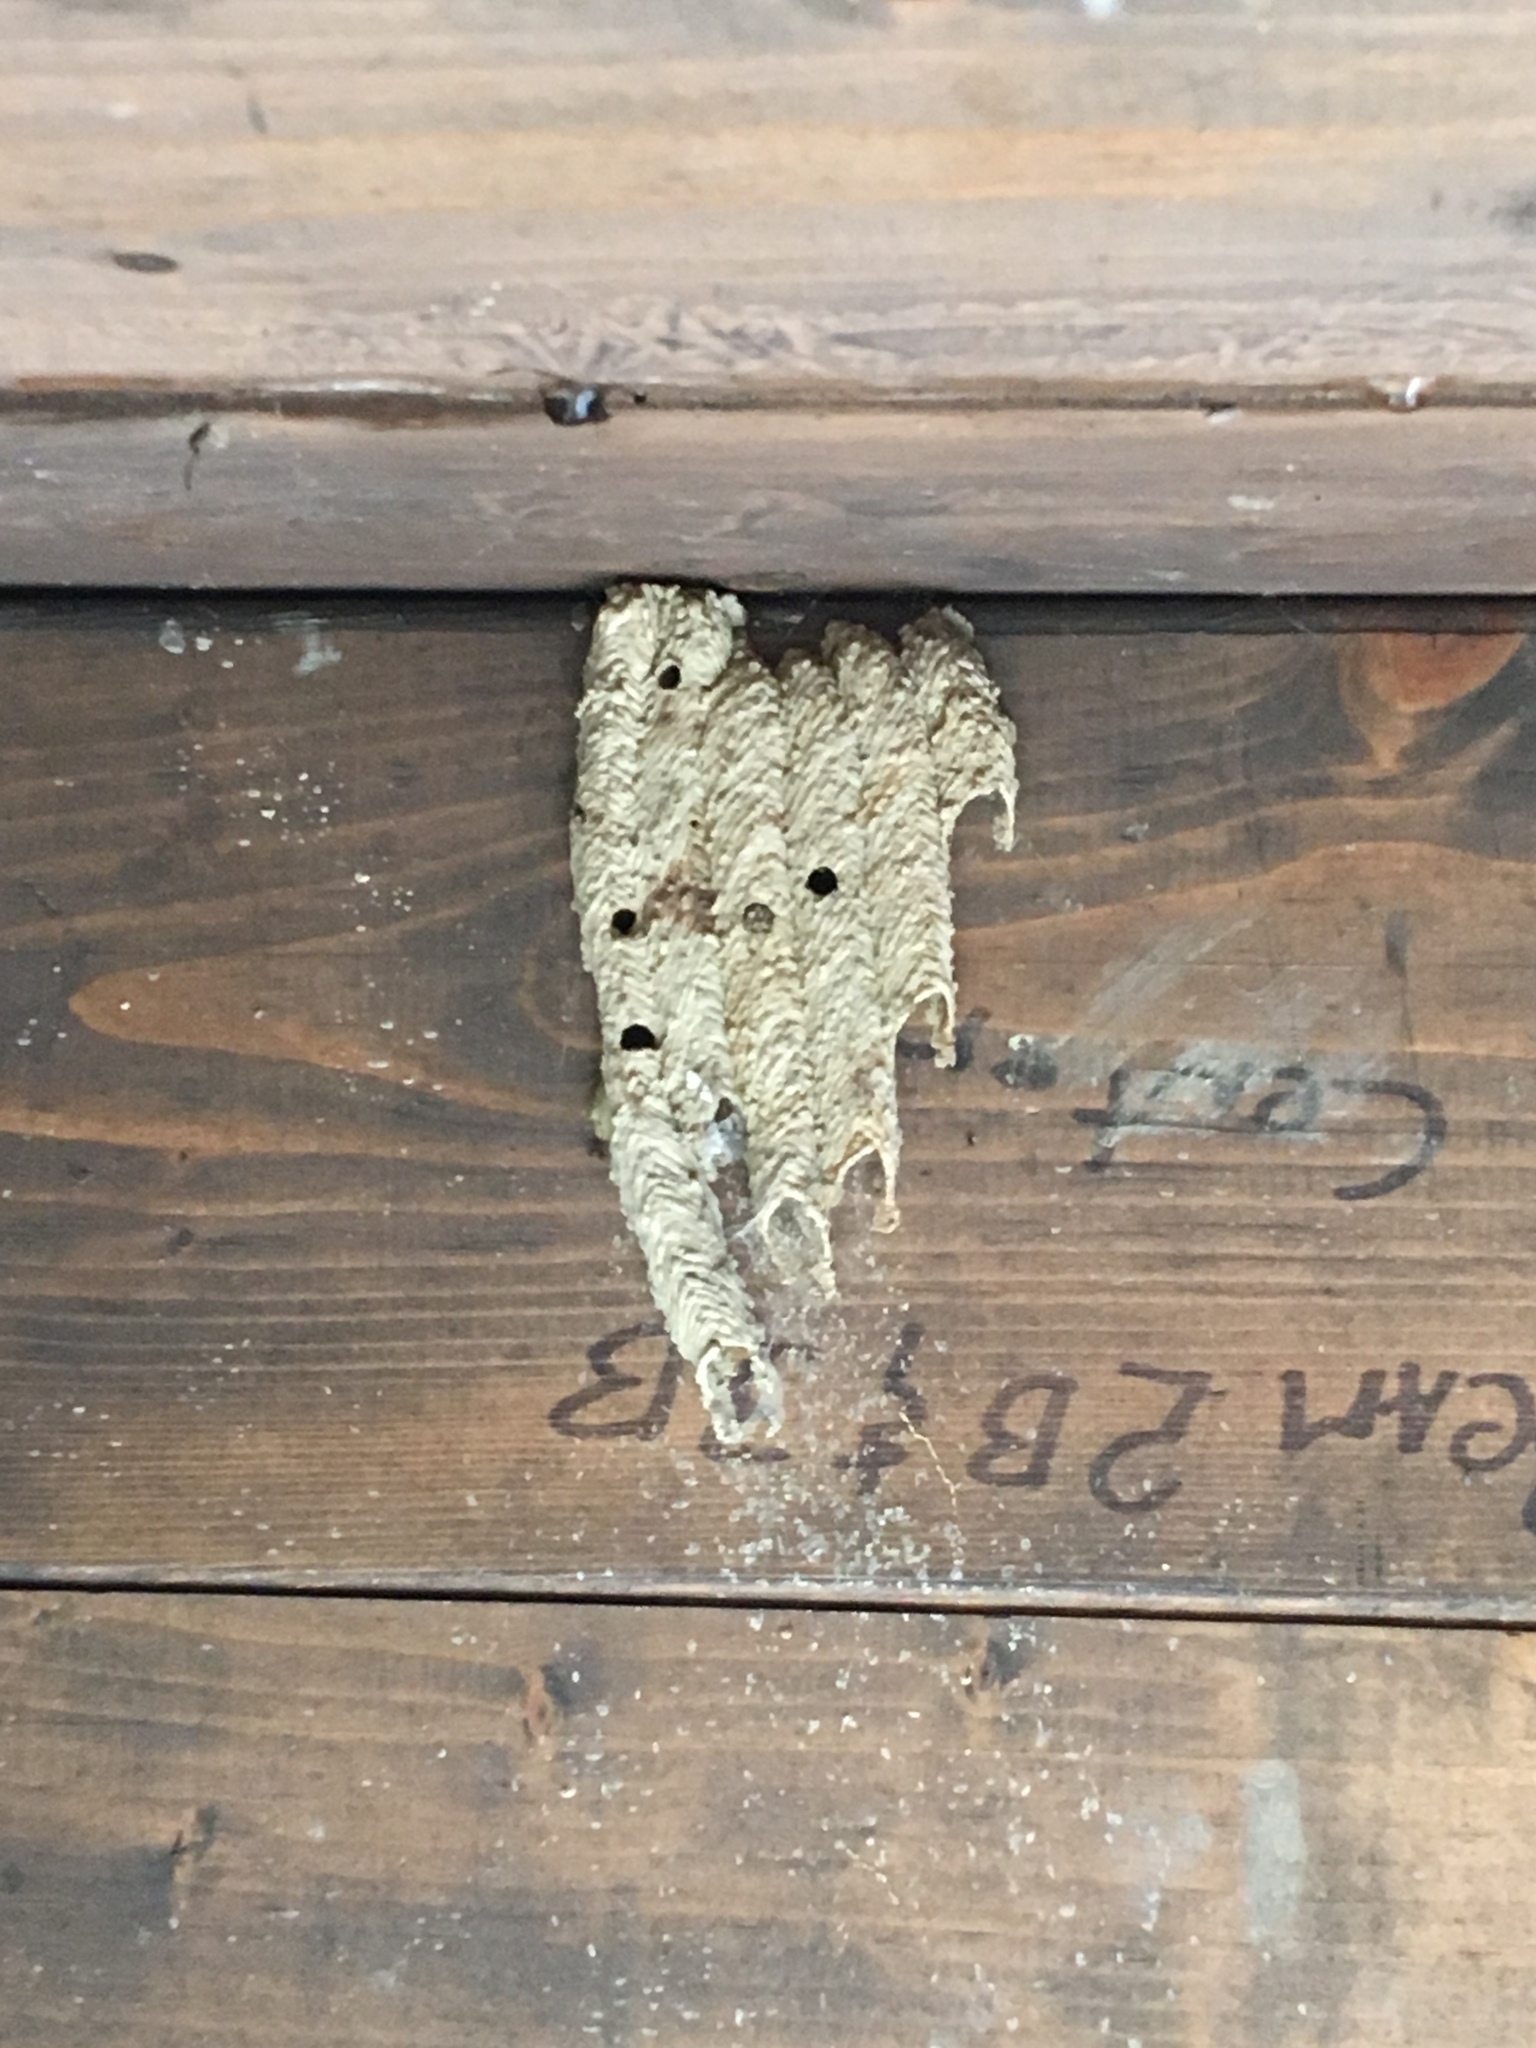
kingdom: Animalia
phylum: Arthropoda
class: Insecta
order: Hymenoptera
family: Crabronidae
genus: Trypoxylon
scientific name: Trypoxylon politum
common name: Organ-pipe mud-dauber wasp
